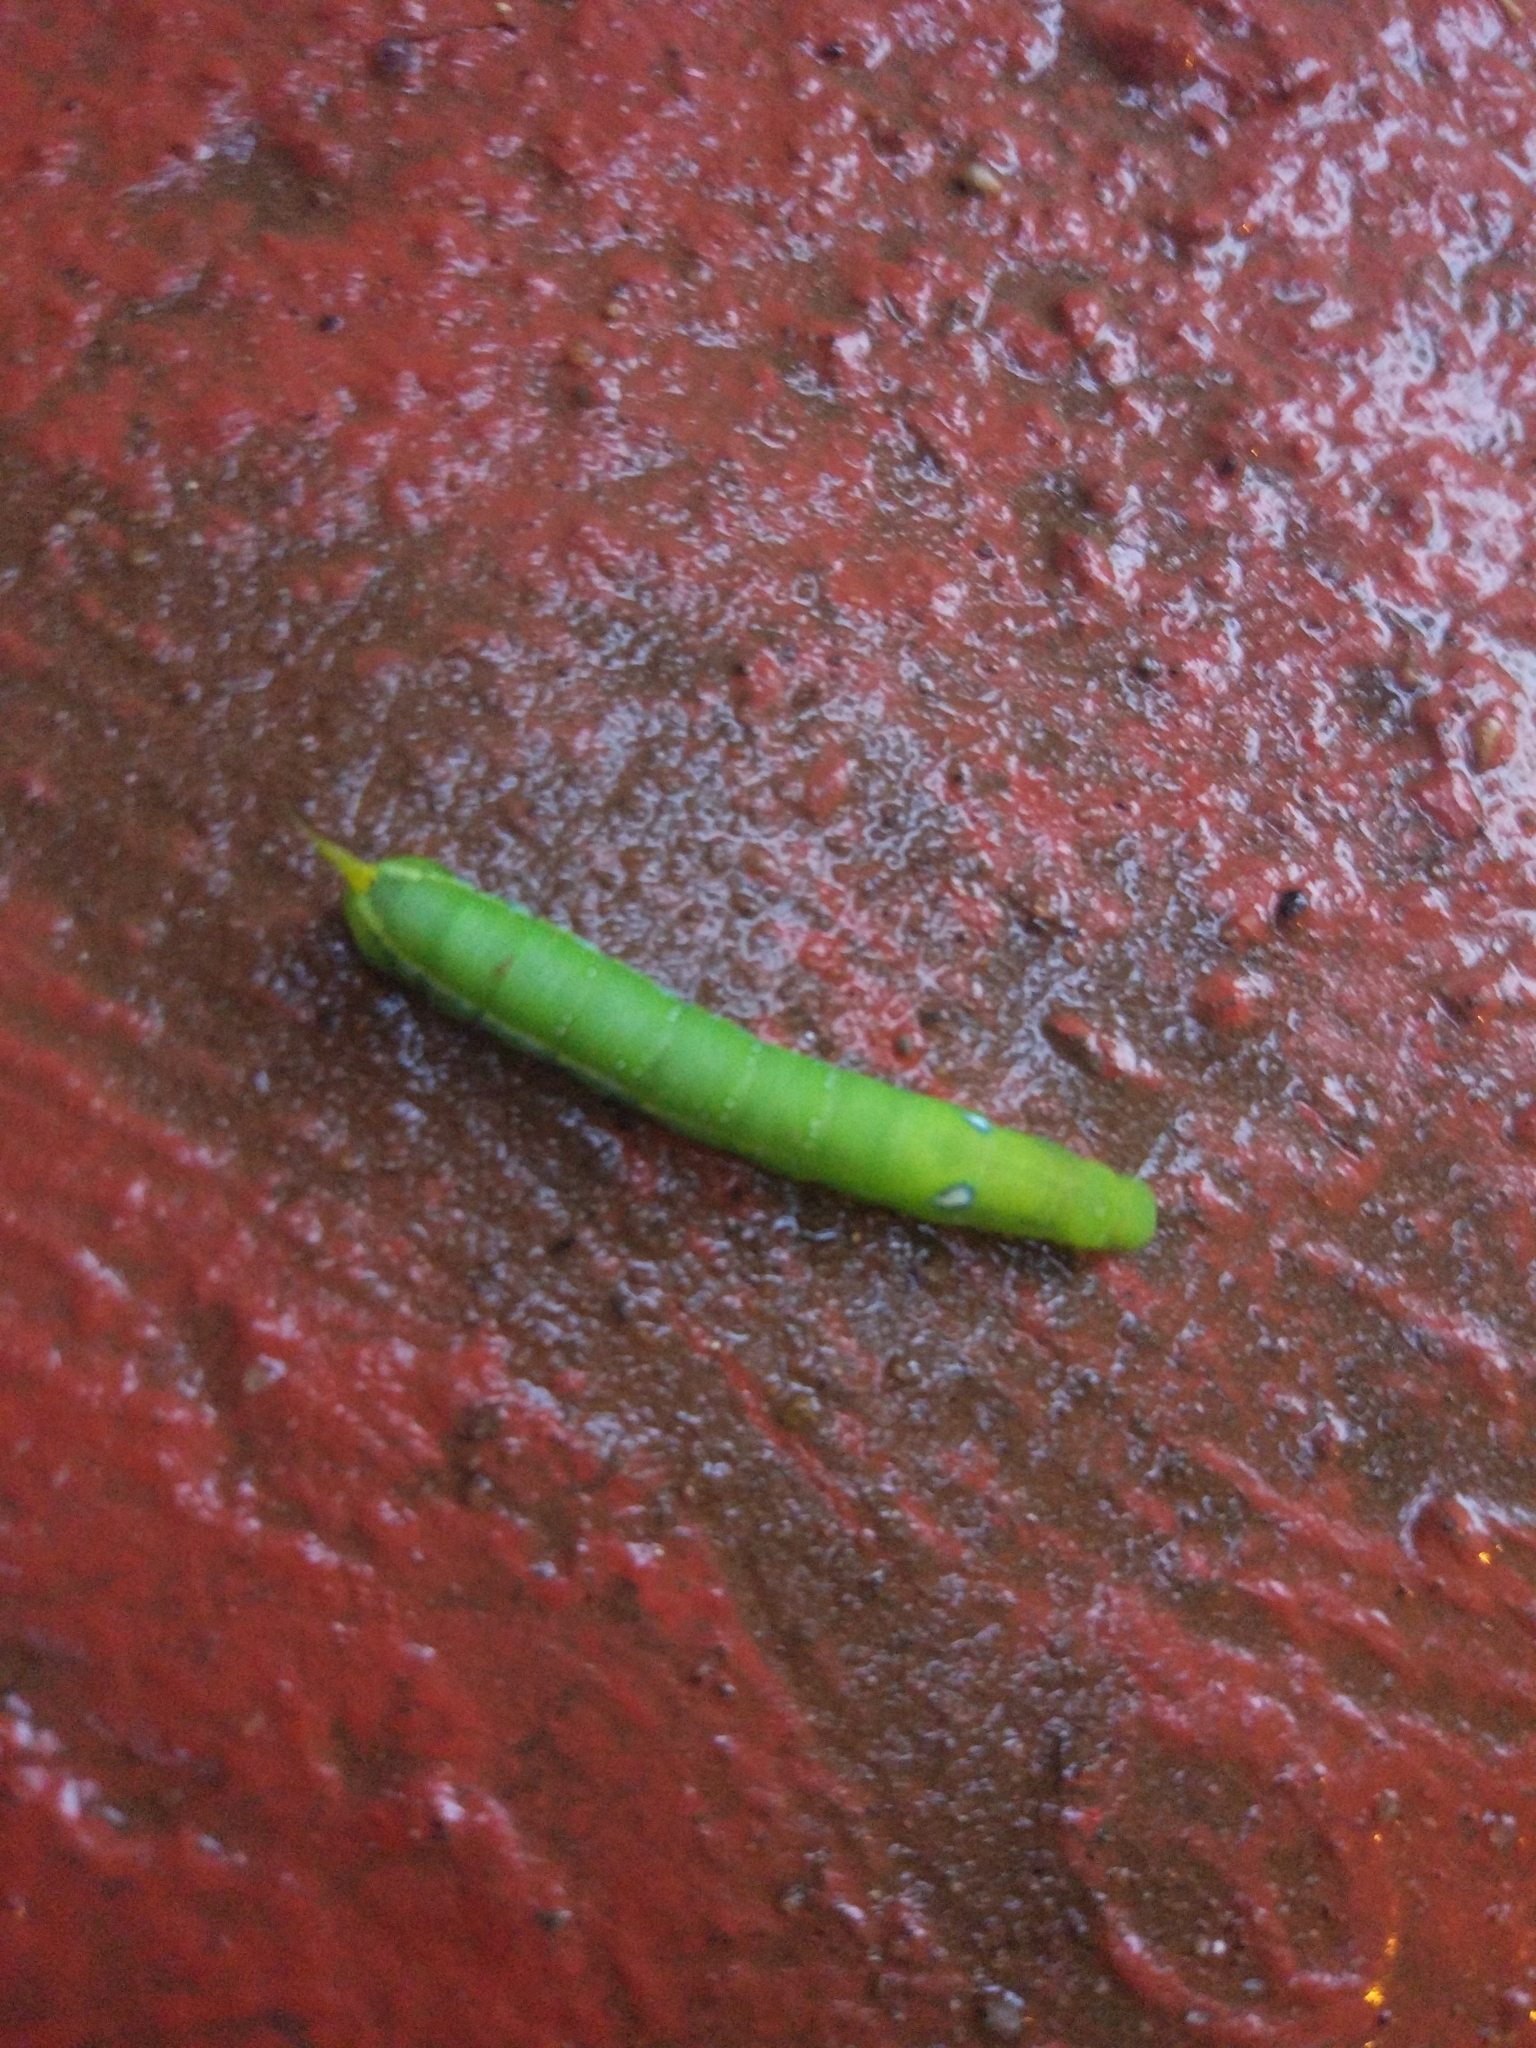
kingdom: Animalia
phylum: Arthropoda
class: Insecta
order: Lepidoptera
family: Sphingidae
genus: Daphnis
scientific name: Daphnis nerii
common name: Oleander hawk-moth
